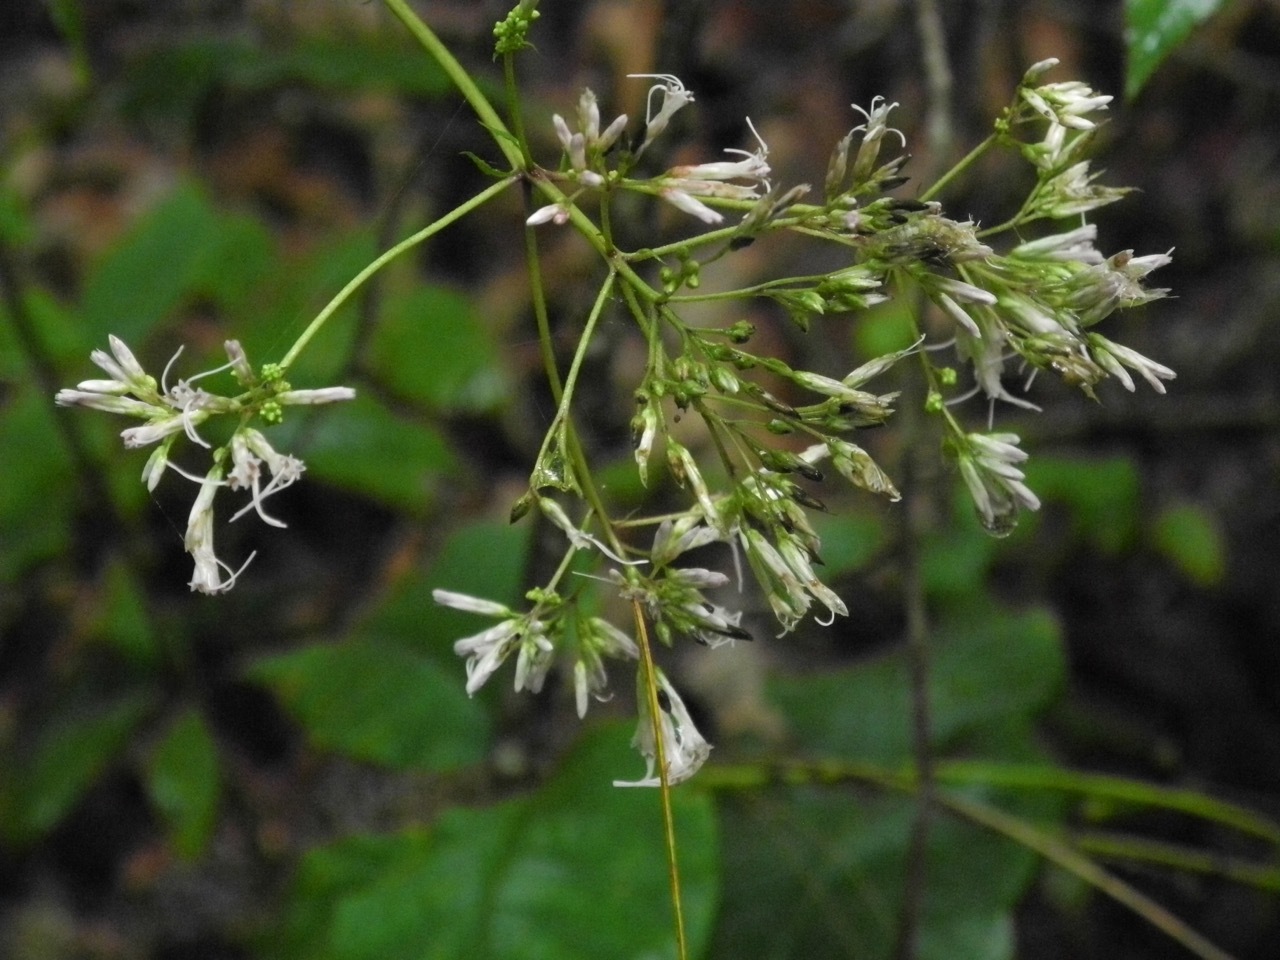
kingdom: Plantae
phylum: Tracheophyta
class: Magnoliopsida
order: Asterales
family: Asteraceae
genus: Eutrochium
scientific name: Eutrochium purpureum
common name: Gravelroot
